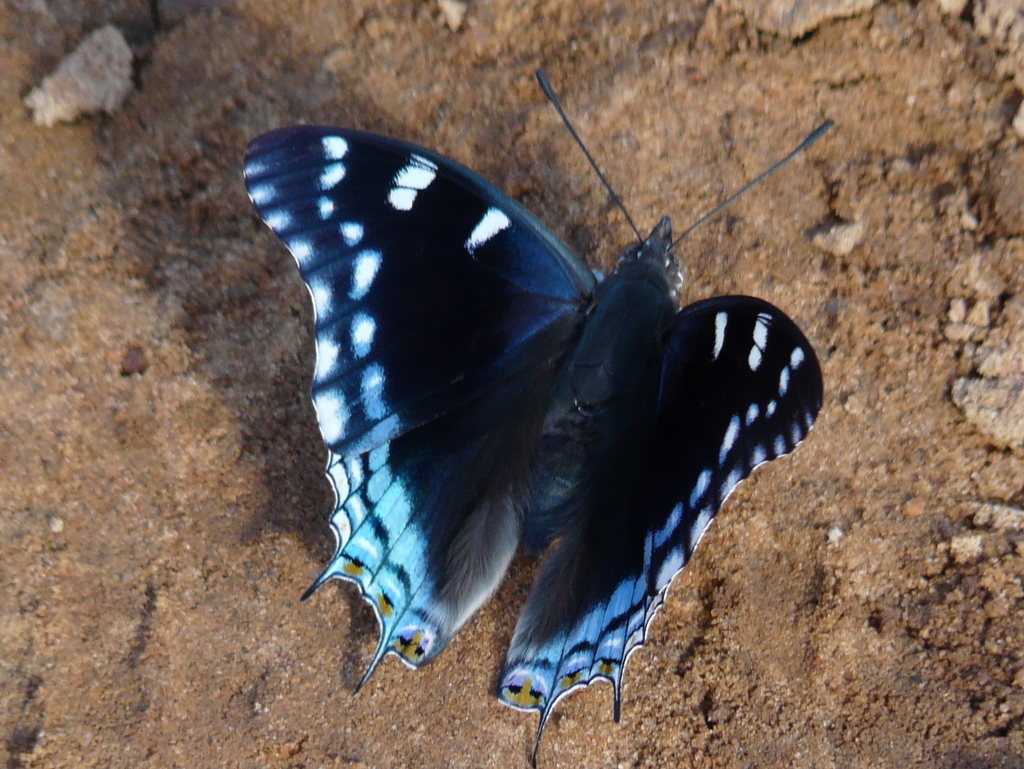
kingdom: Animalia
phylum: Arthropoda
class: Insecta
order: Lepidoptera
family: Nymphalidae
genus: Charaxes
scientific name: Charaxes guderiana
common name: Blue-spangled charaxes
